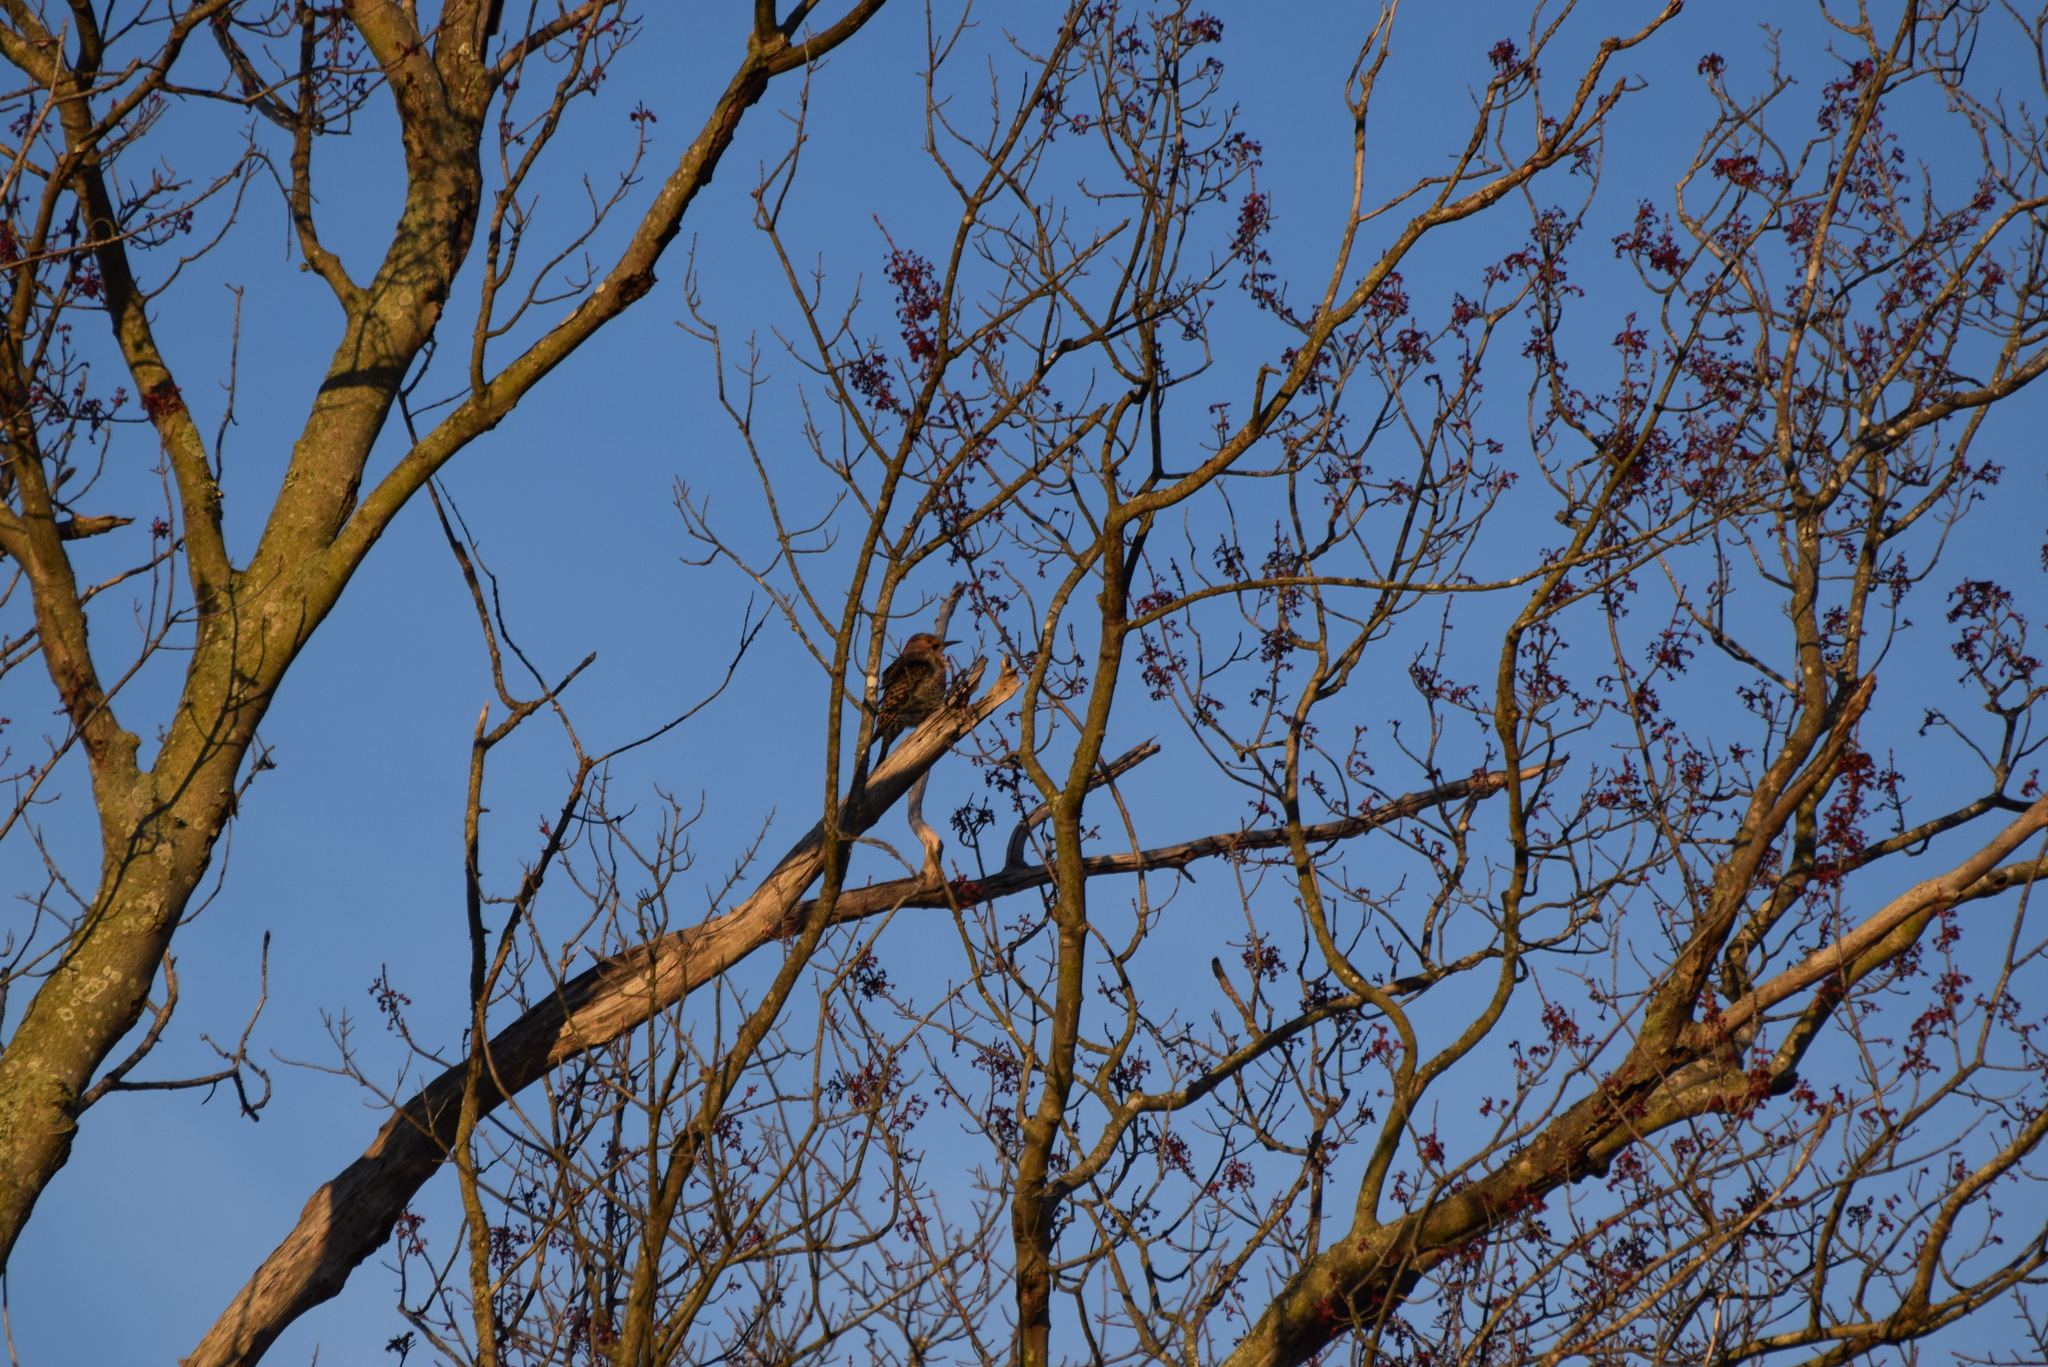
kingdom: Animalia
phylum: Chordata
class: Aves
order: Piciformes
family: Picidae
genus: Colaptes
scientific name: Colaptes auratus
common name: Northern flicker
